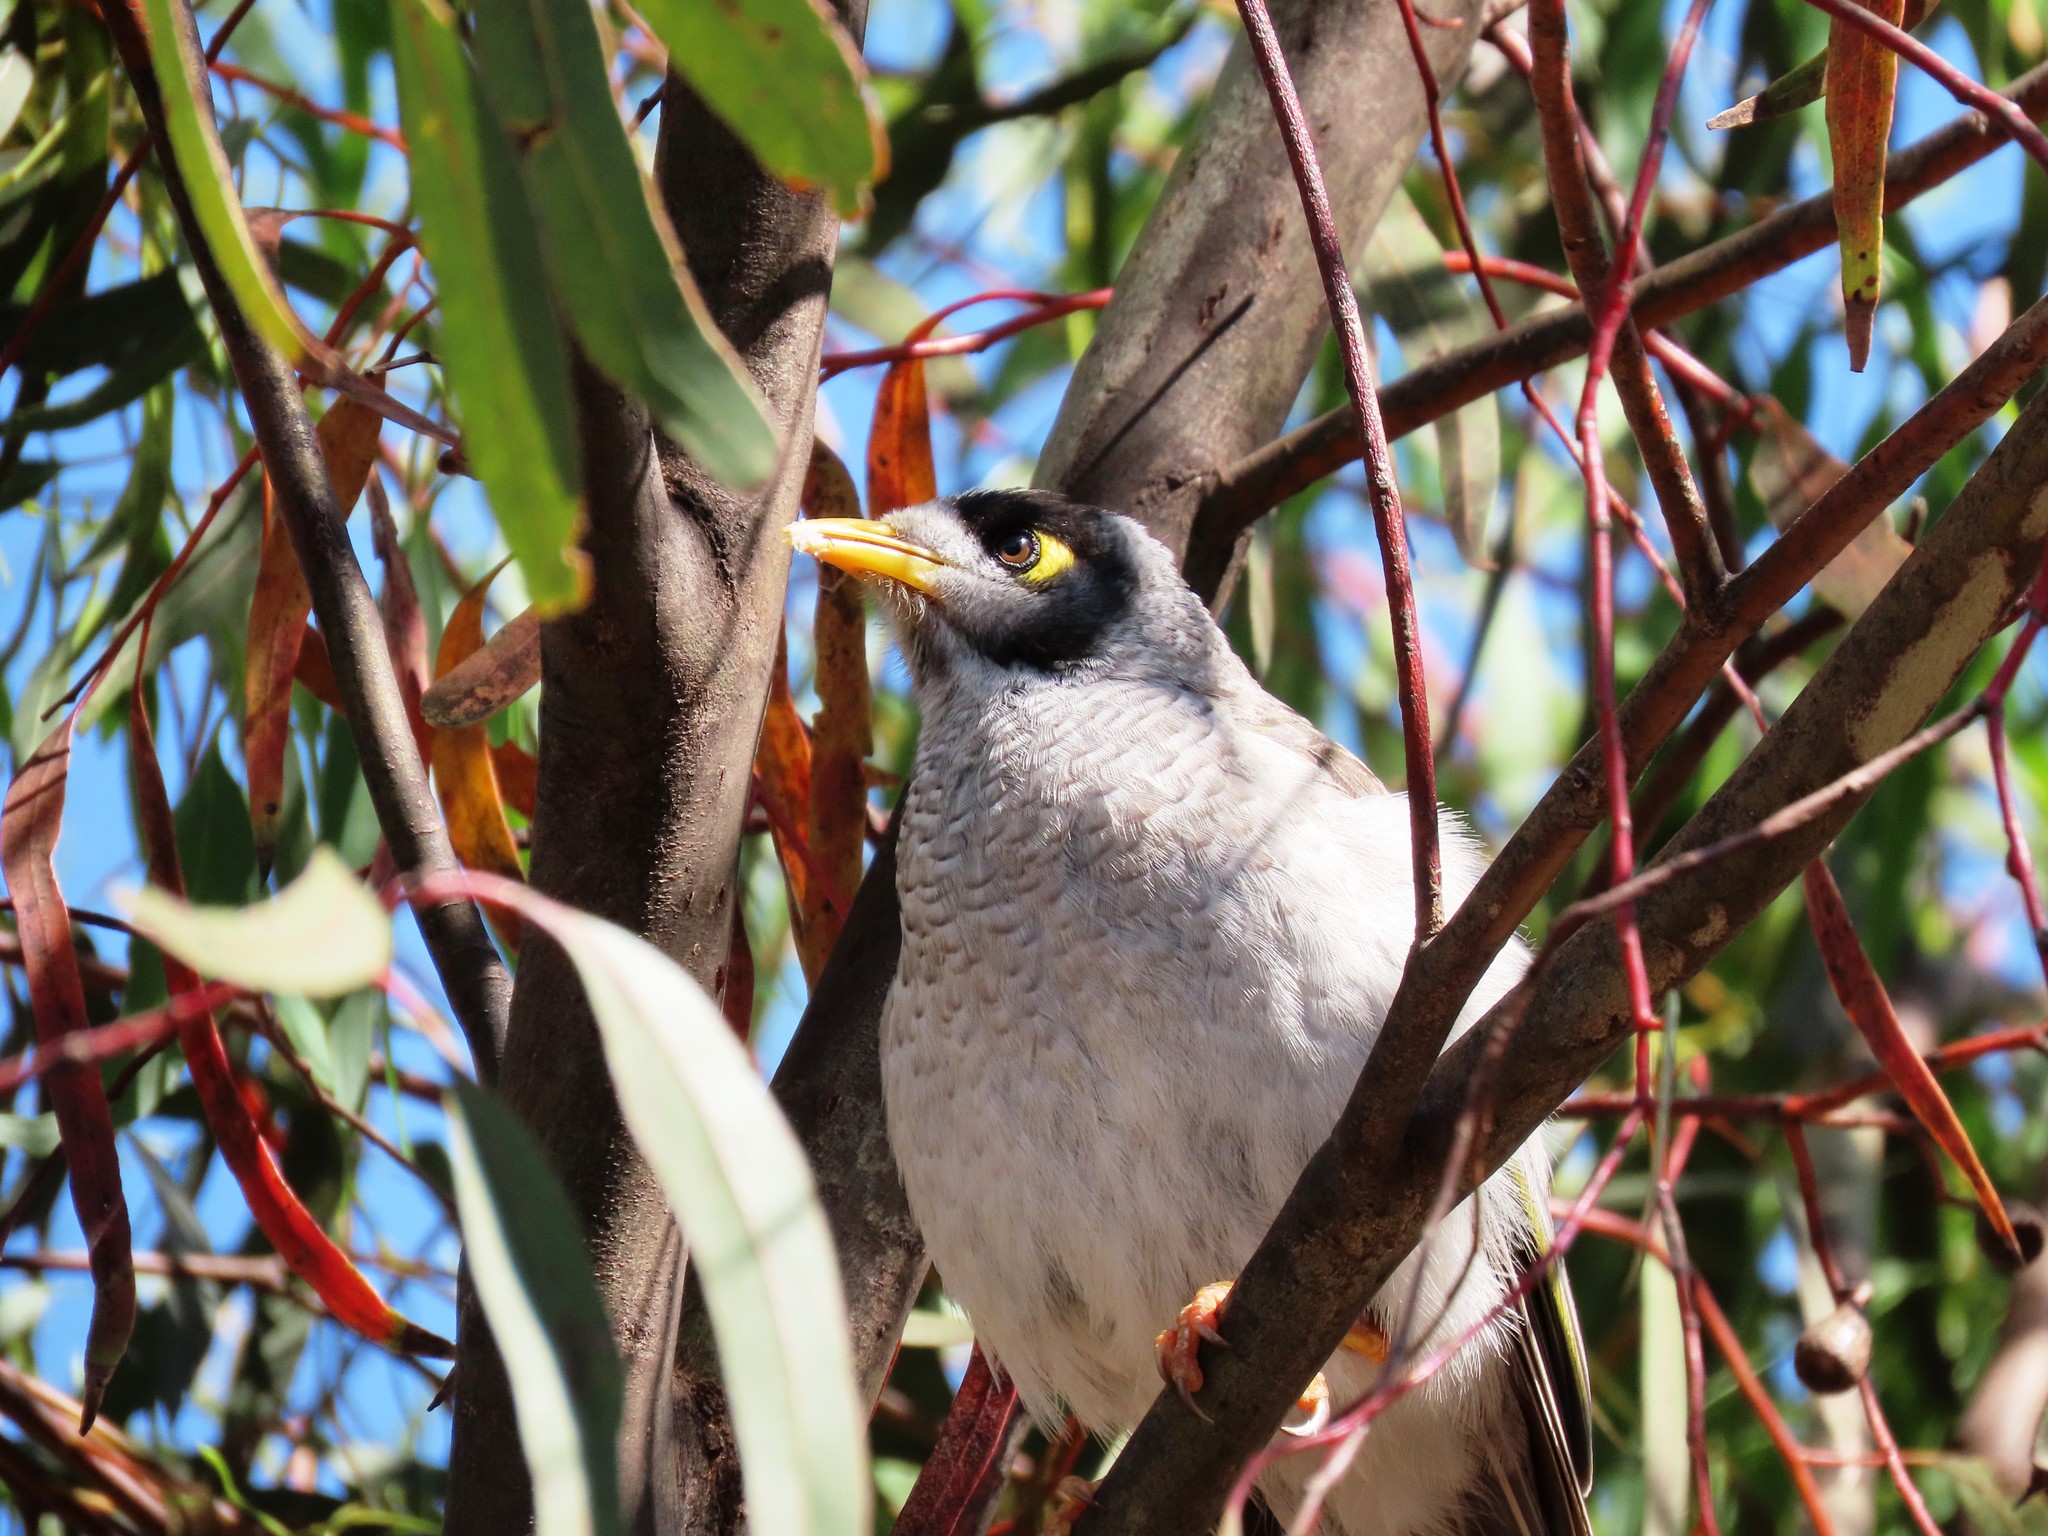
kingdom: Animalia
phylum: Chordata
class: Aves
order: Passeriformes
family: Meliphagidae
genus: Manorina
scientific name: Manorina melanocephala
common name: Noisy miner
